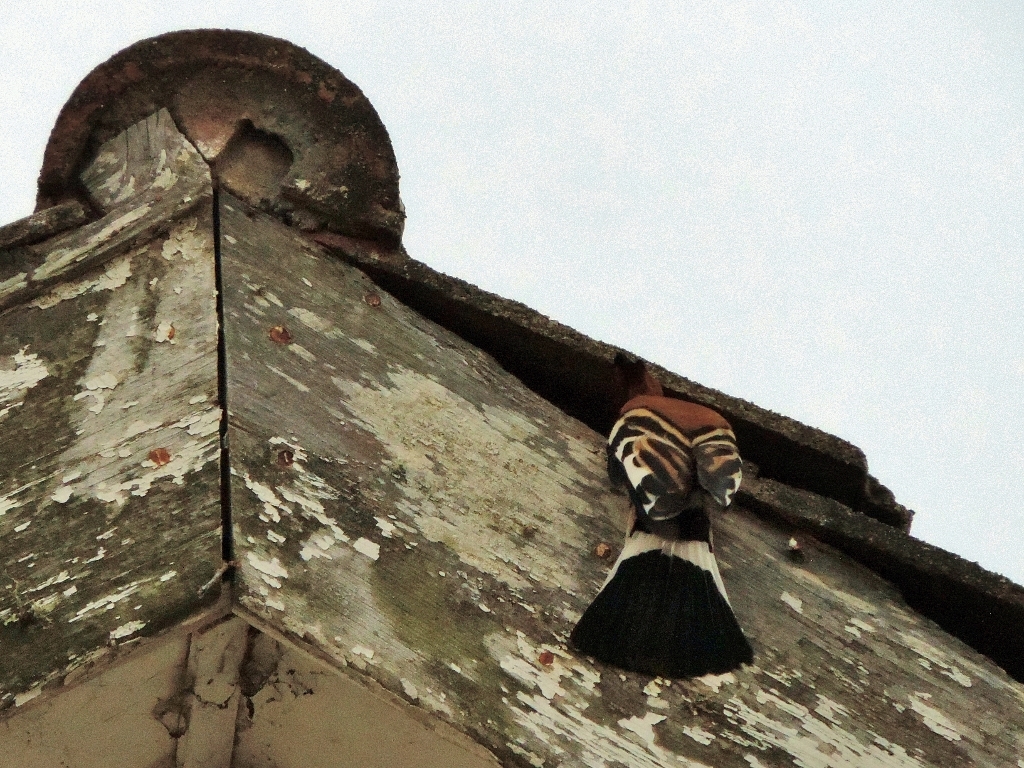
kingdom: Animalia
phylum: Chordata
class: Aves
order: Bucerotiformes
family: Upupidae
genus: Upupa
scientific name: Upupa africana
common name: African hoopoe
